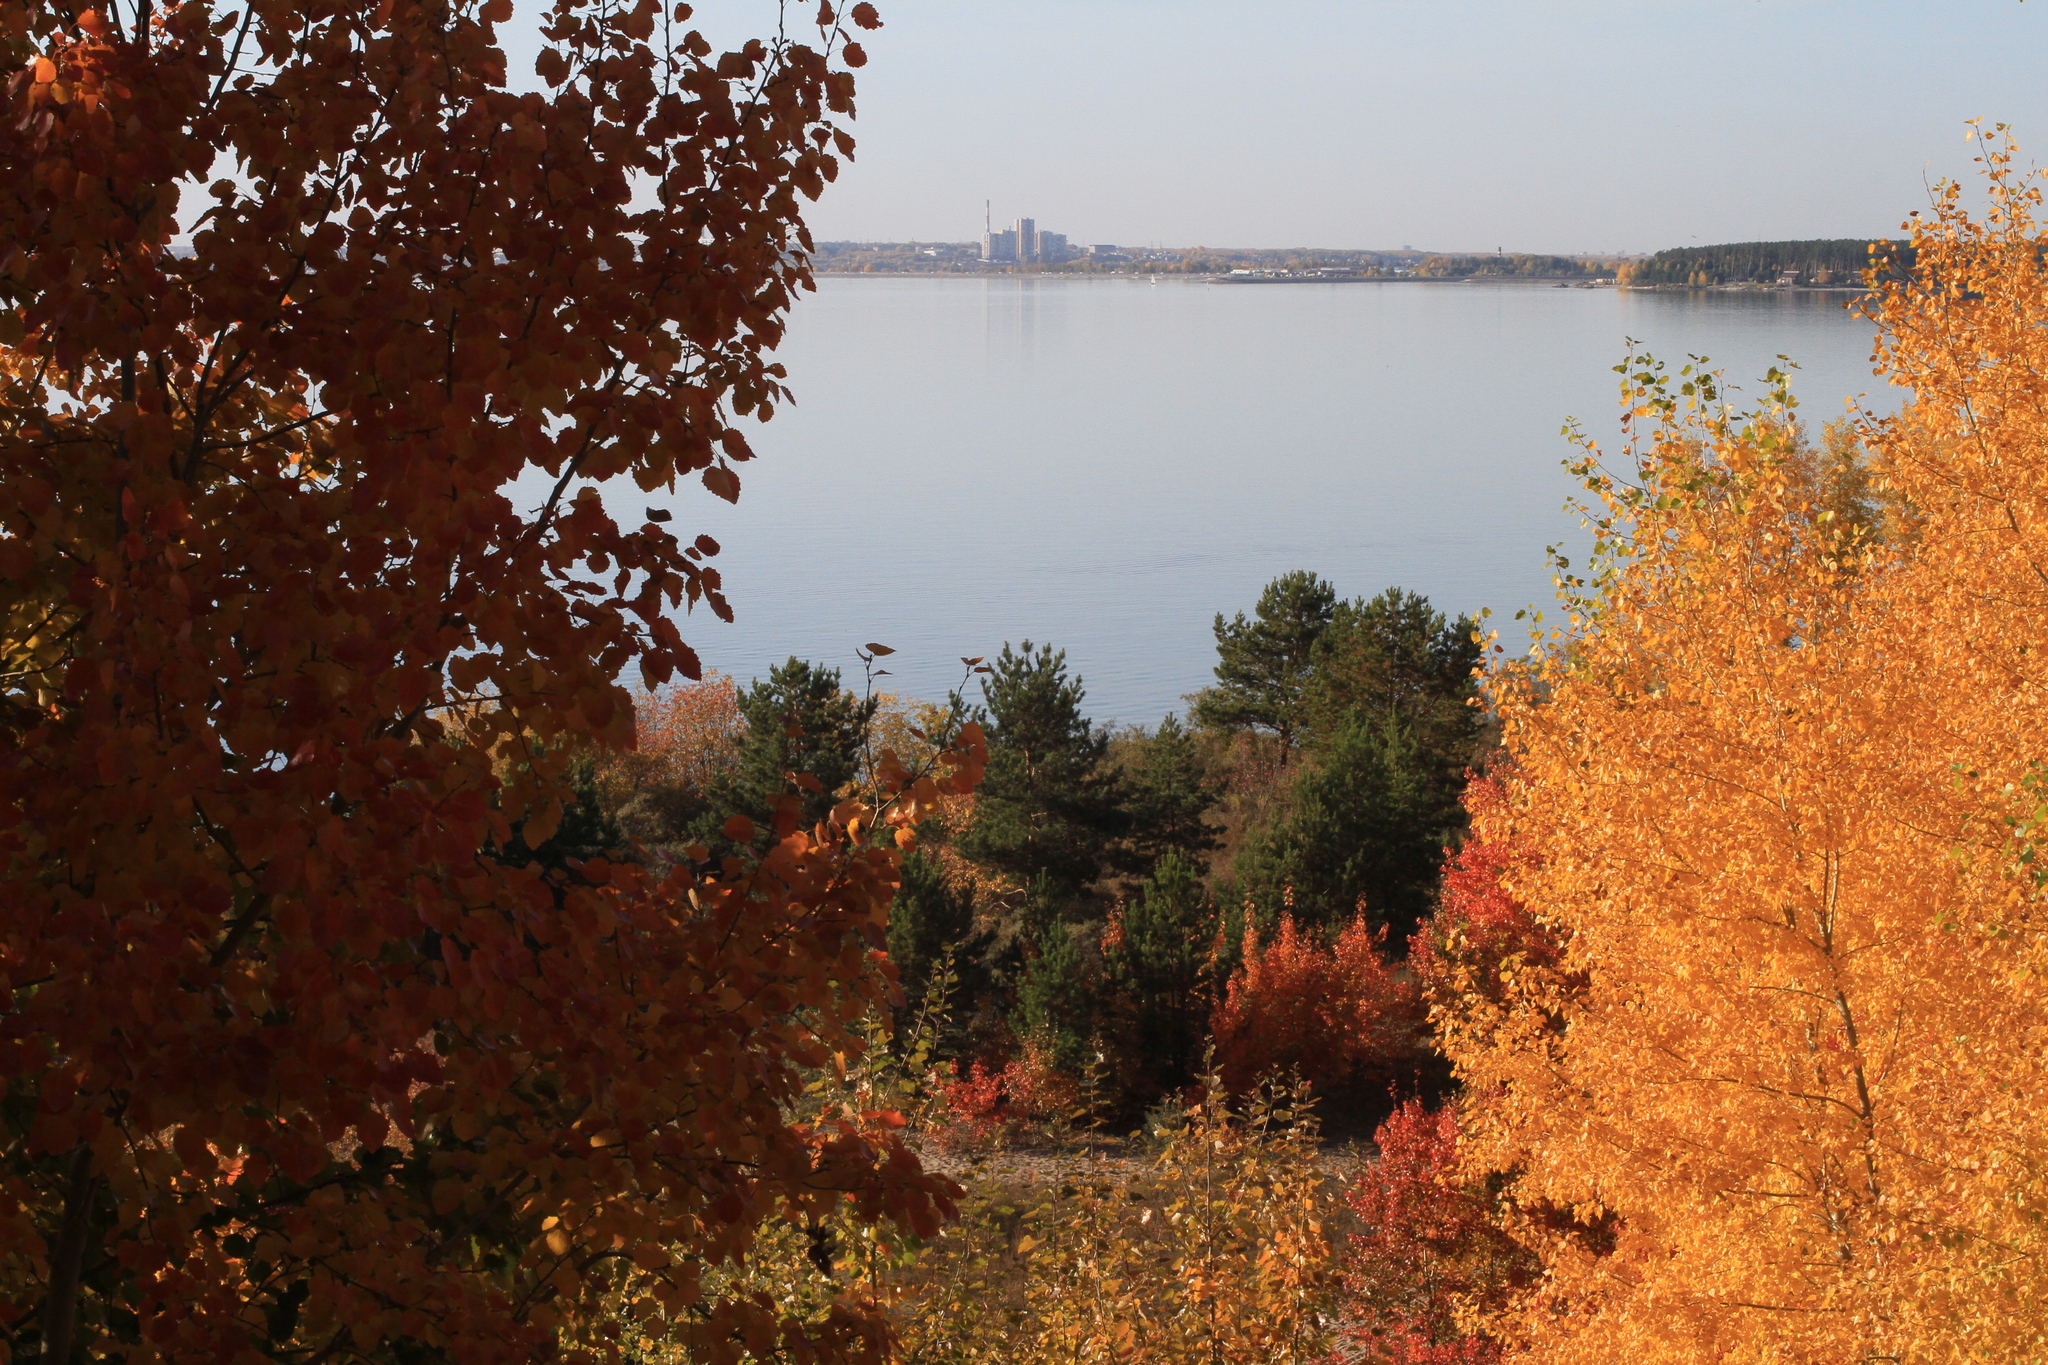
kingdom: Plantae
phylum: Tracheophyta
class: Magnoliopsida
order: Malpighiales
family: Salicaceae
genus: Populus
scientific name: Populus tremula
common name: European aspen
